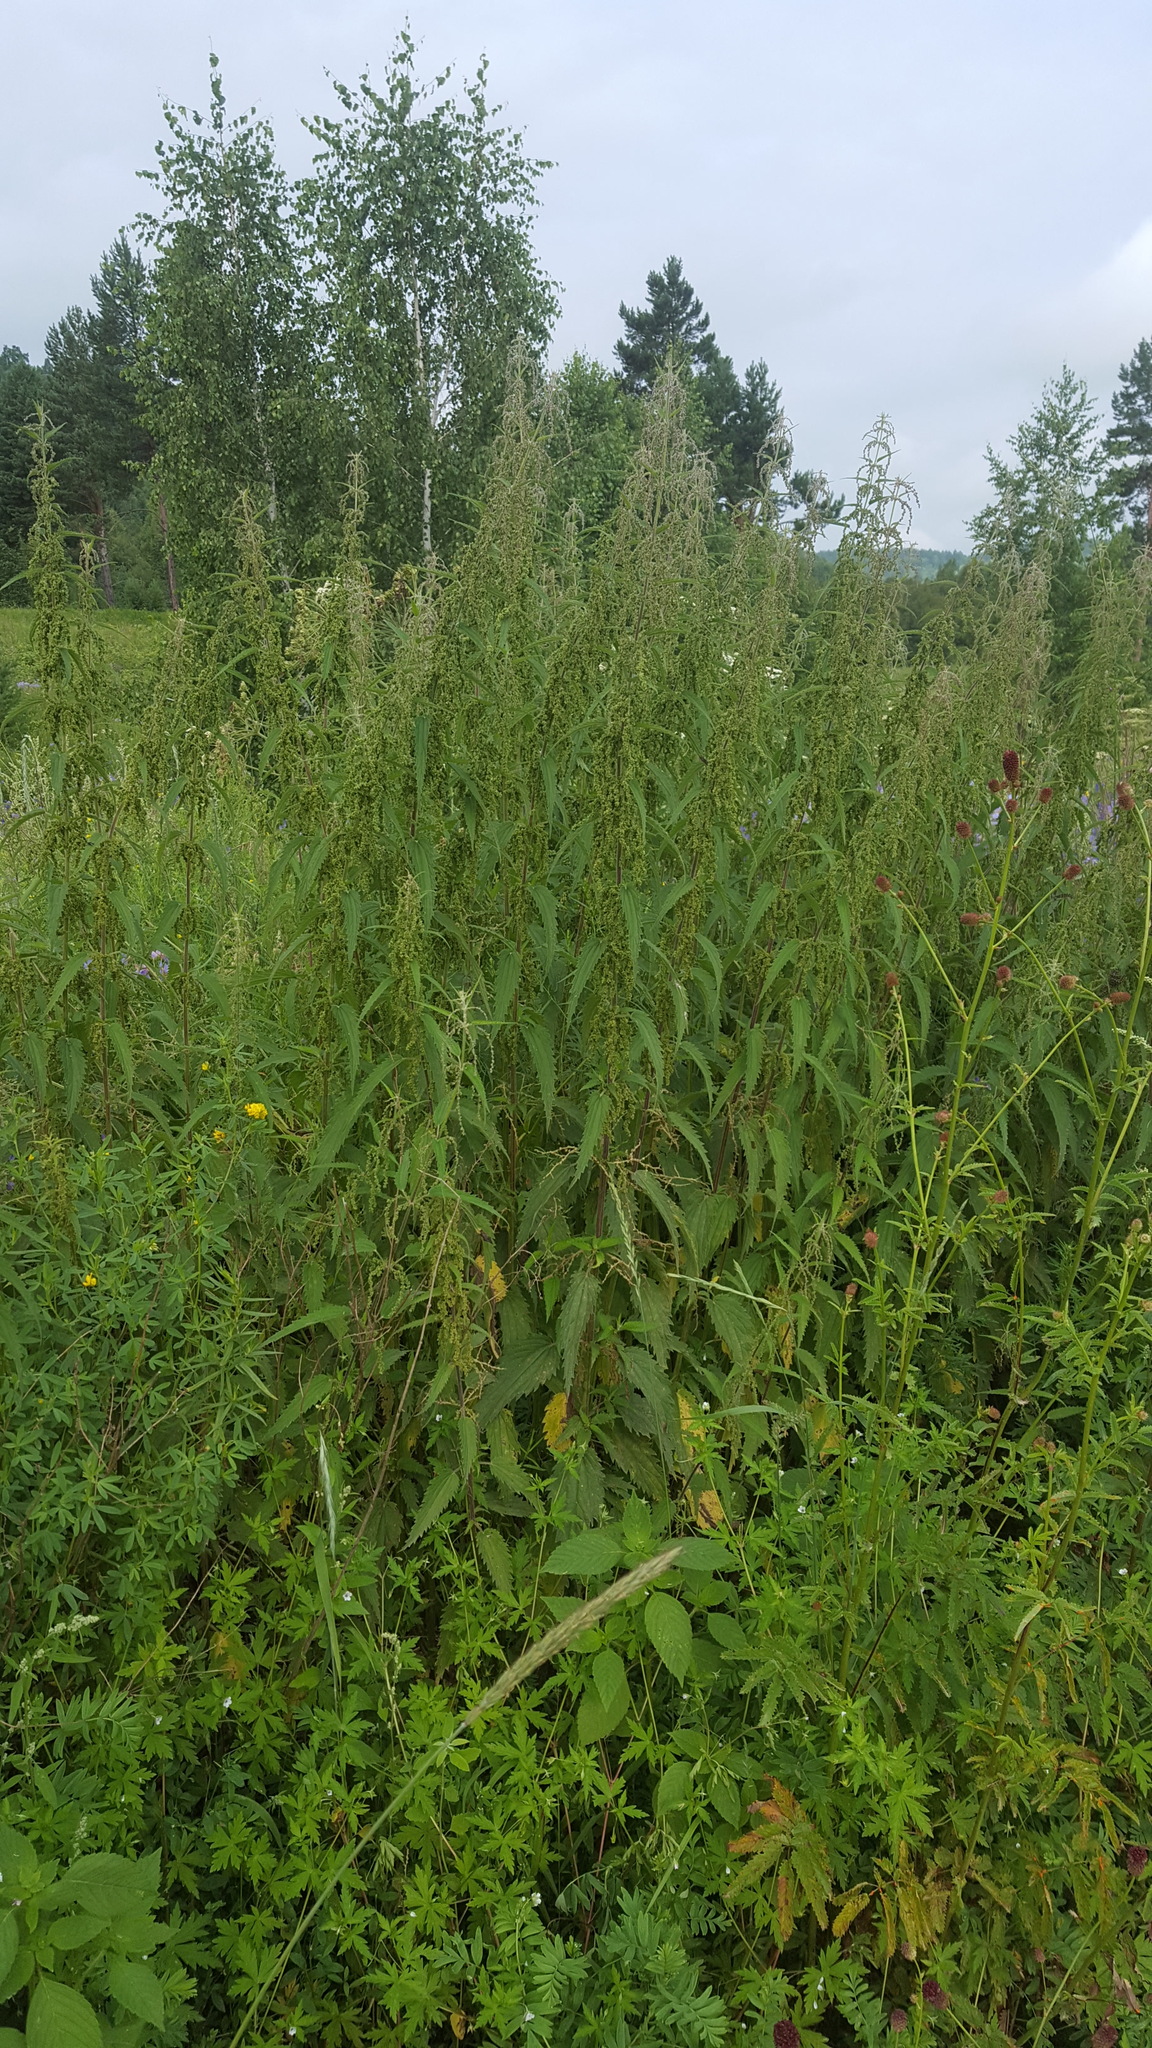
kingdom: Plantae
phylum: Tracheophyta
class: Magnoliopsida
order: Rosales
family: Urticaceae
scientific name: Urticaceae
